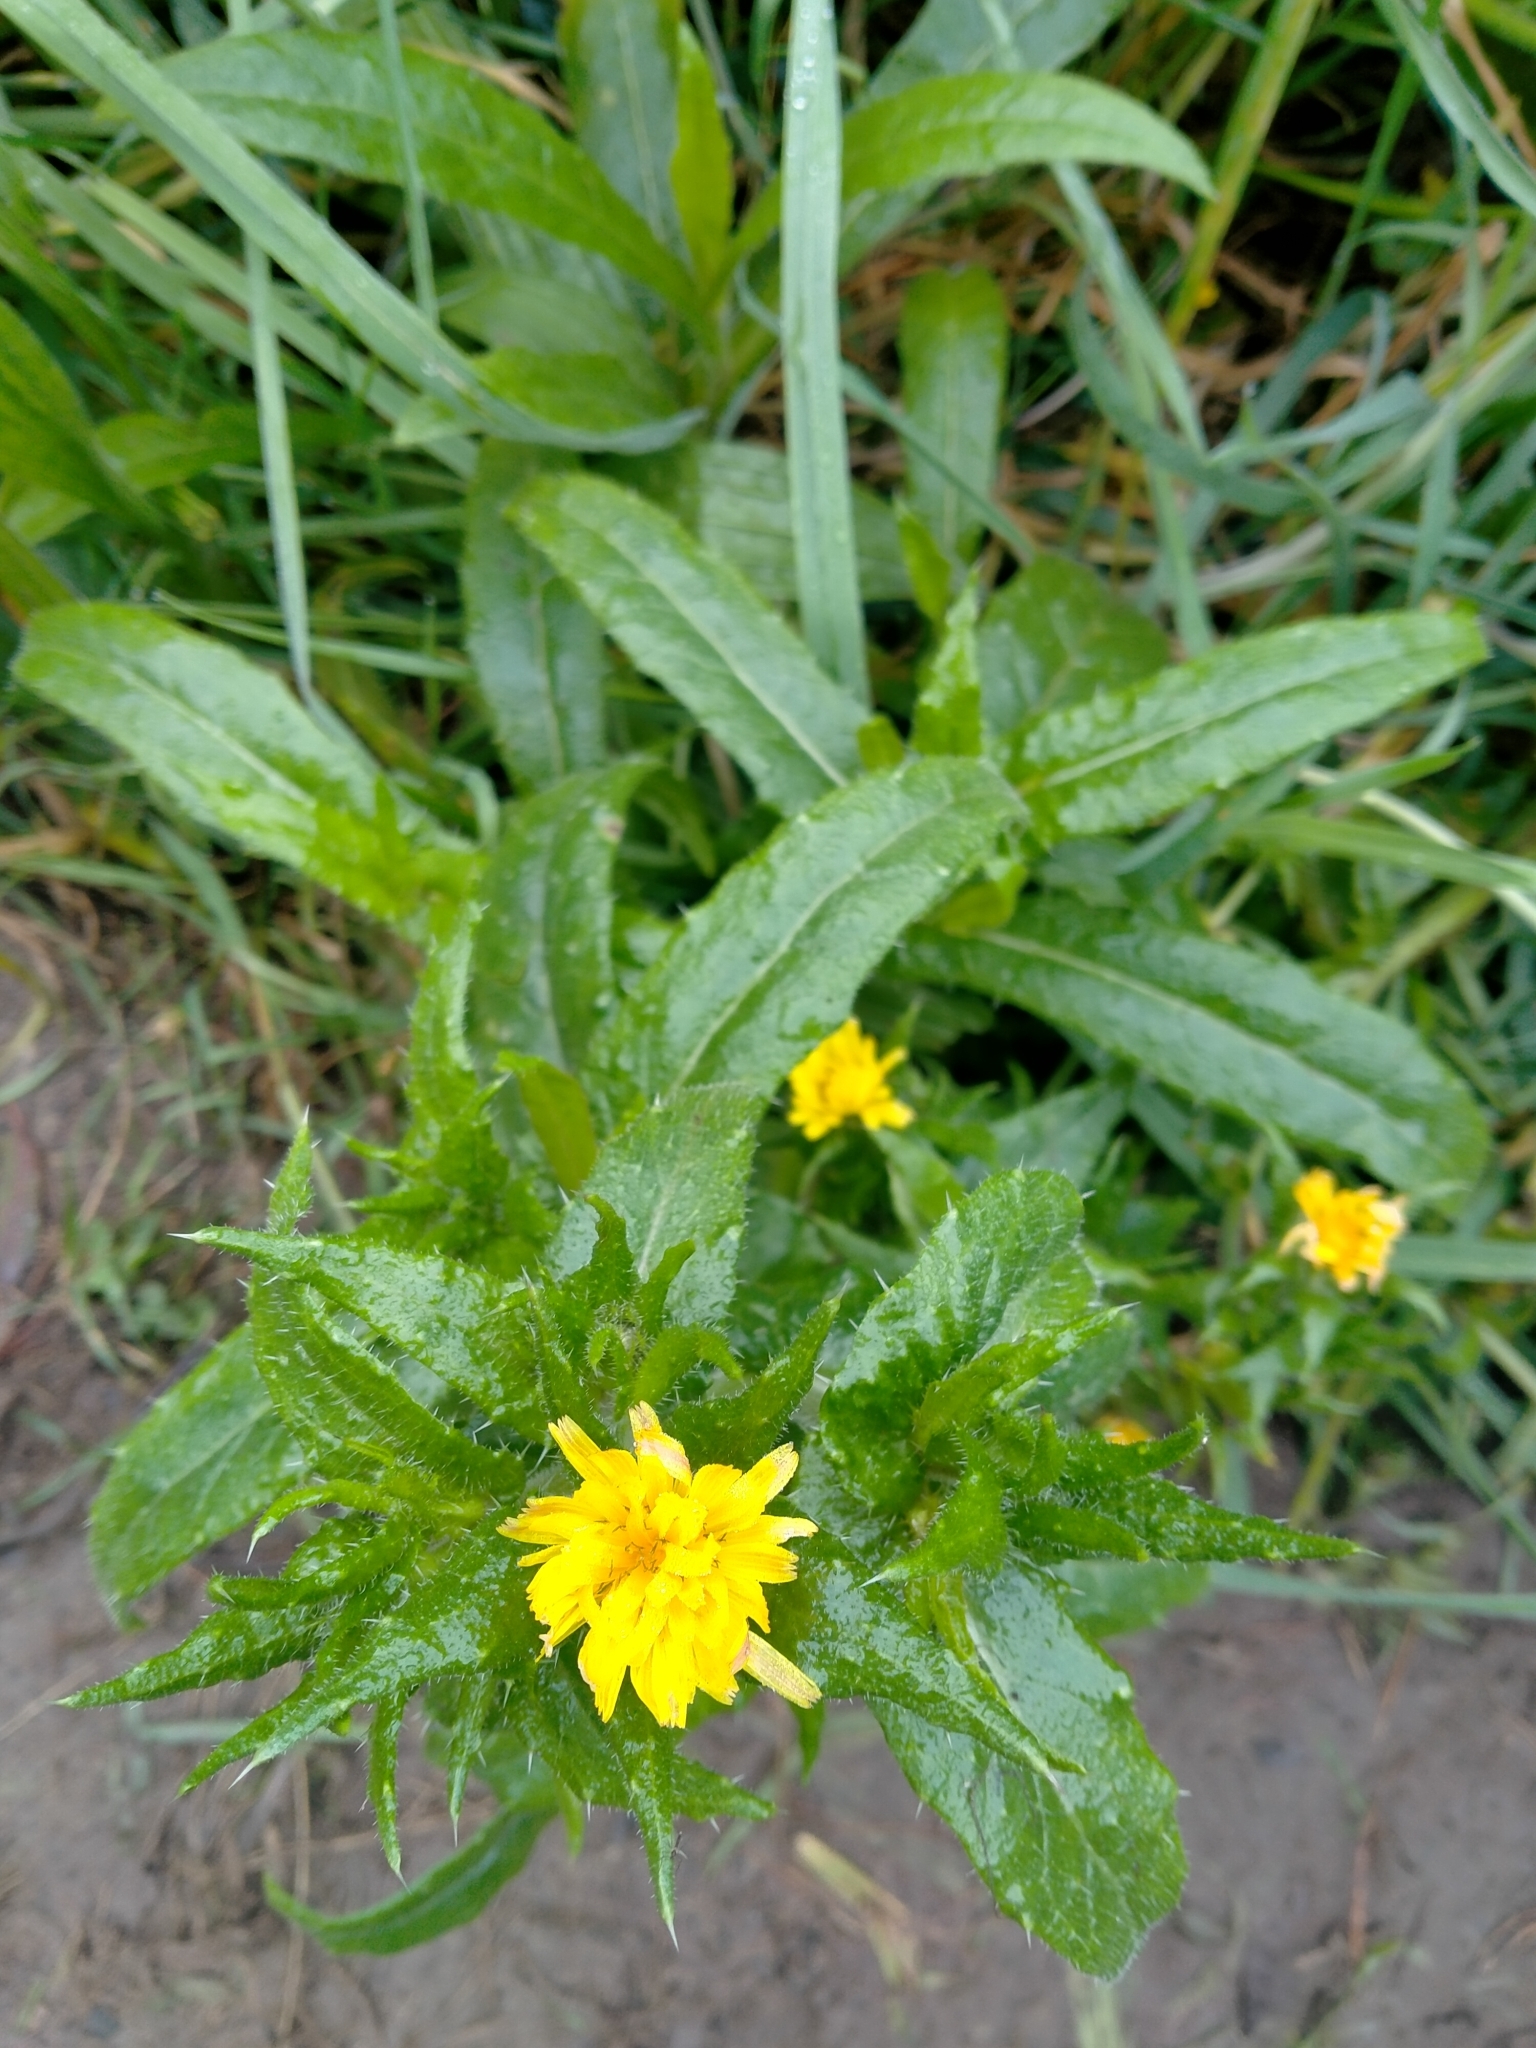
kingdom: Plantae
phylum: Tracheophyta
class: Magnoliopsida
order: Asterales
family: Asteraceae
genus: Helminthotheca
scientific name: Helminthotheca echioides
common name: Ox-tongue
